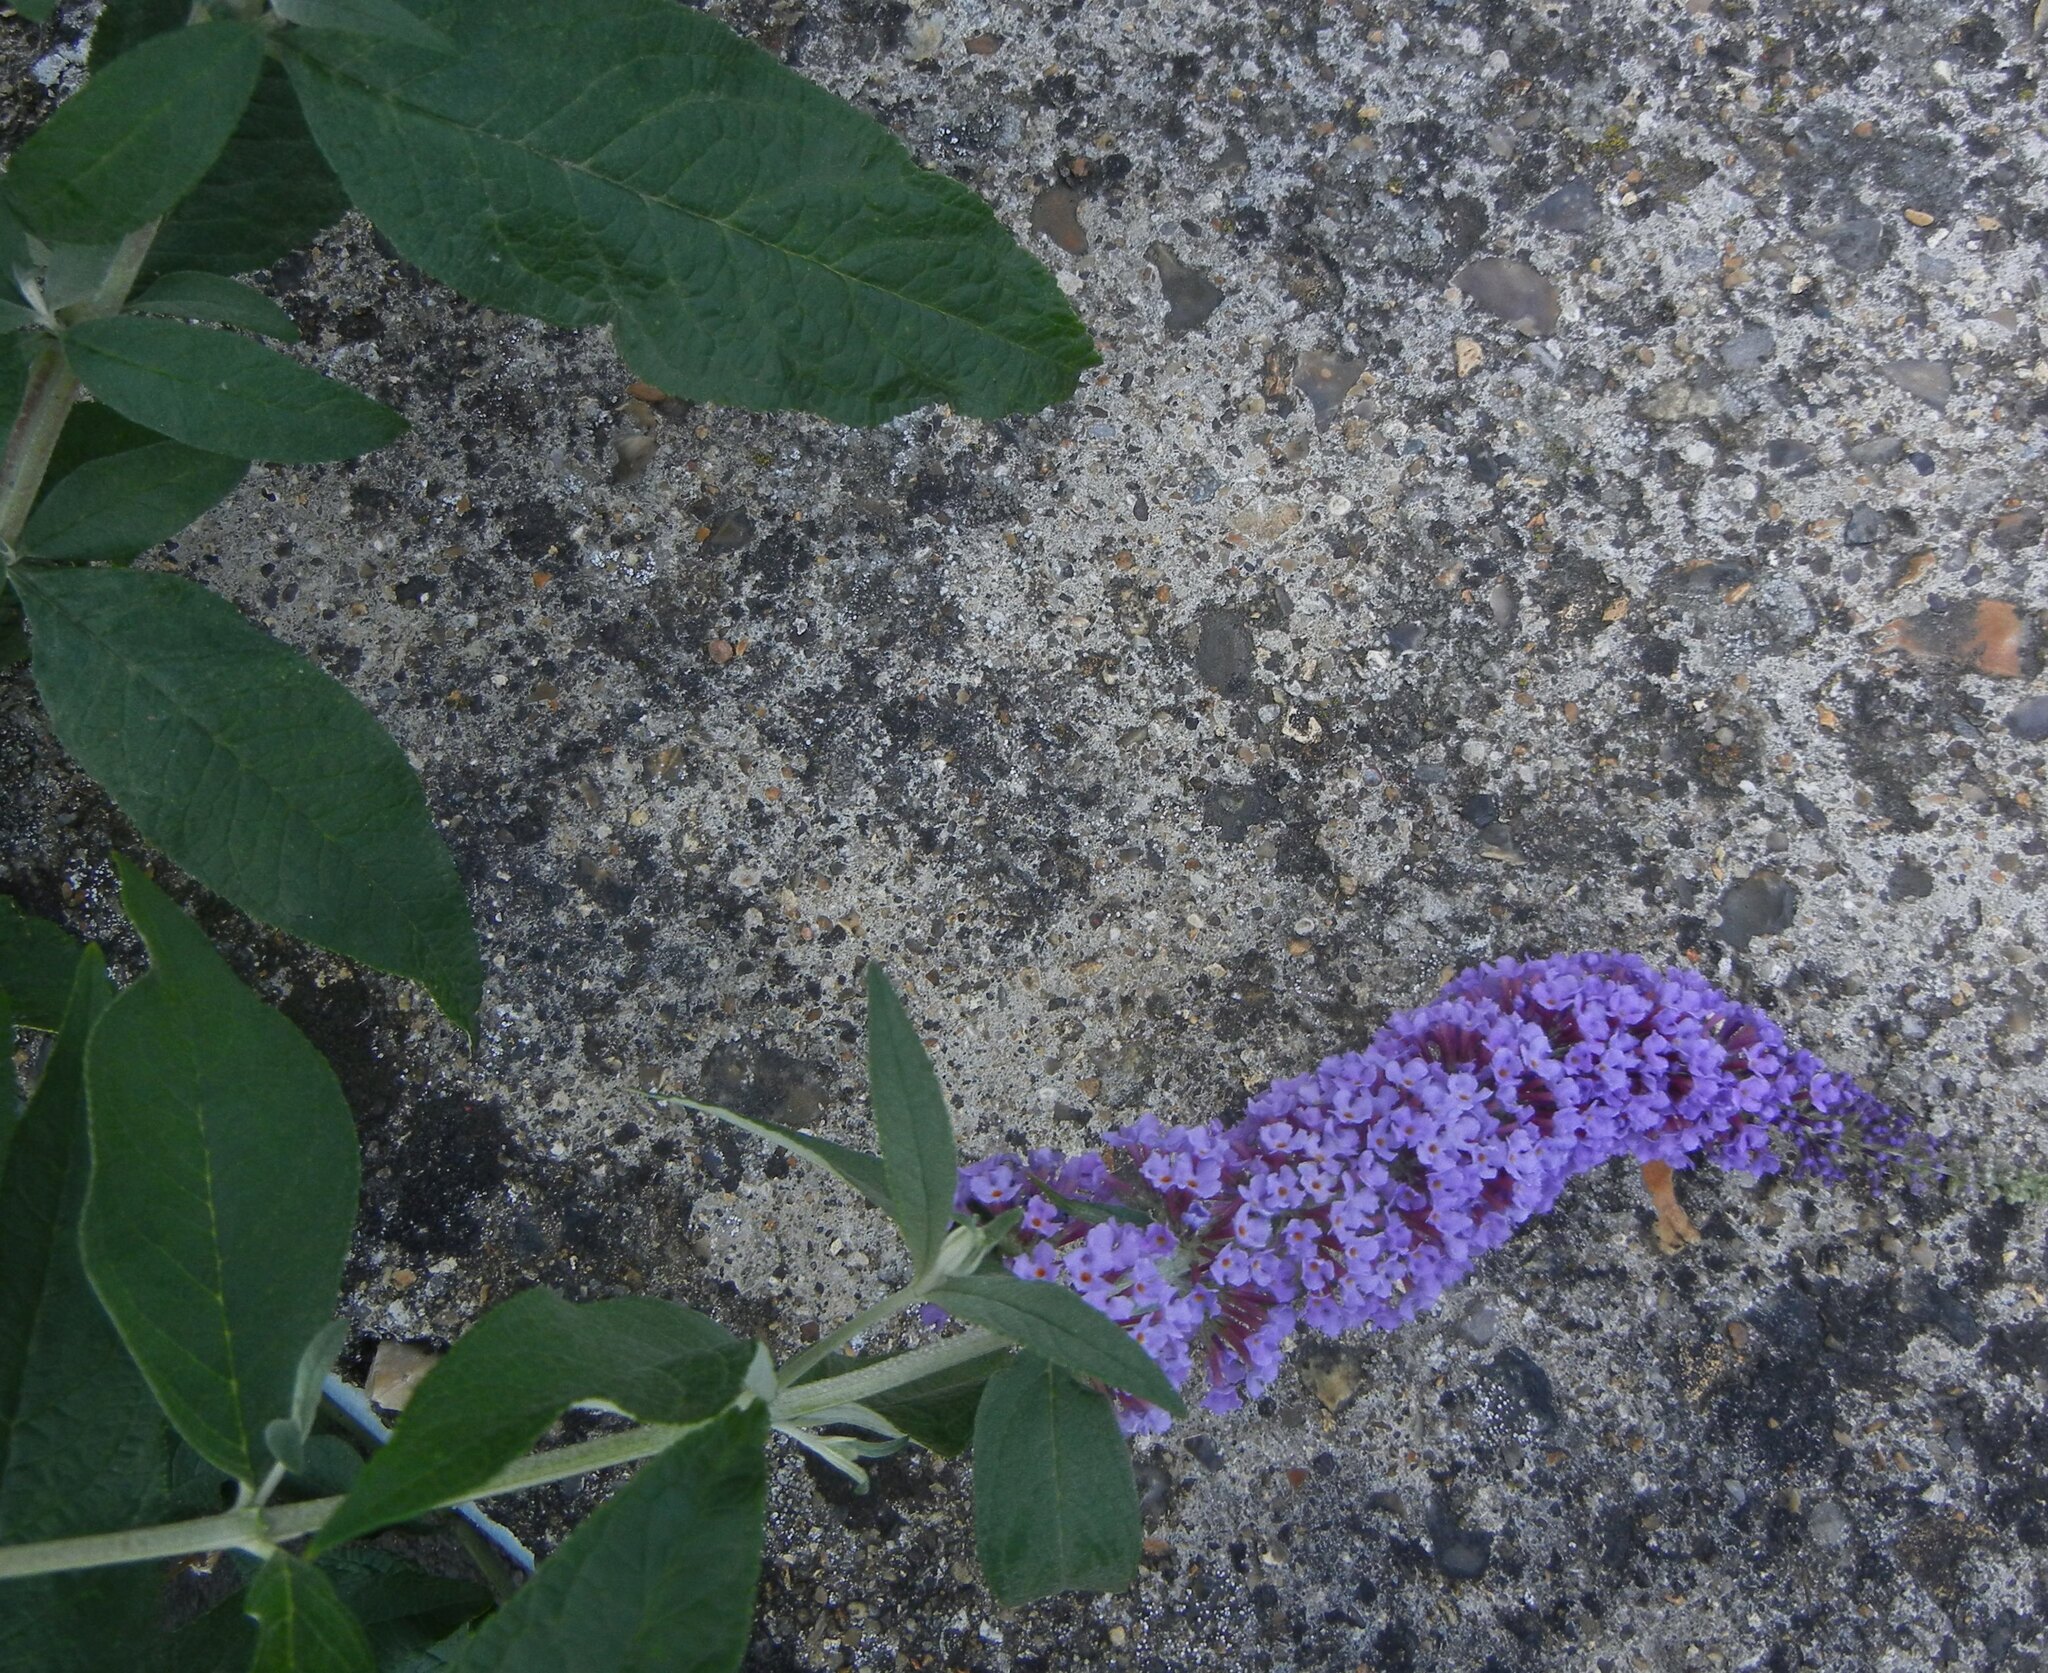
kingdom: Plantae
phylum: Tracheophyta
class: Magnoliopsida
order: Lamiales
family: Scrophulariaceae
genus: Buddleja
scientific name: Buddleja davidii
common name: Butterfly-bush
